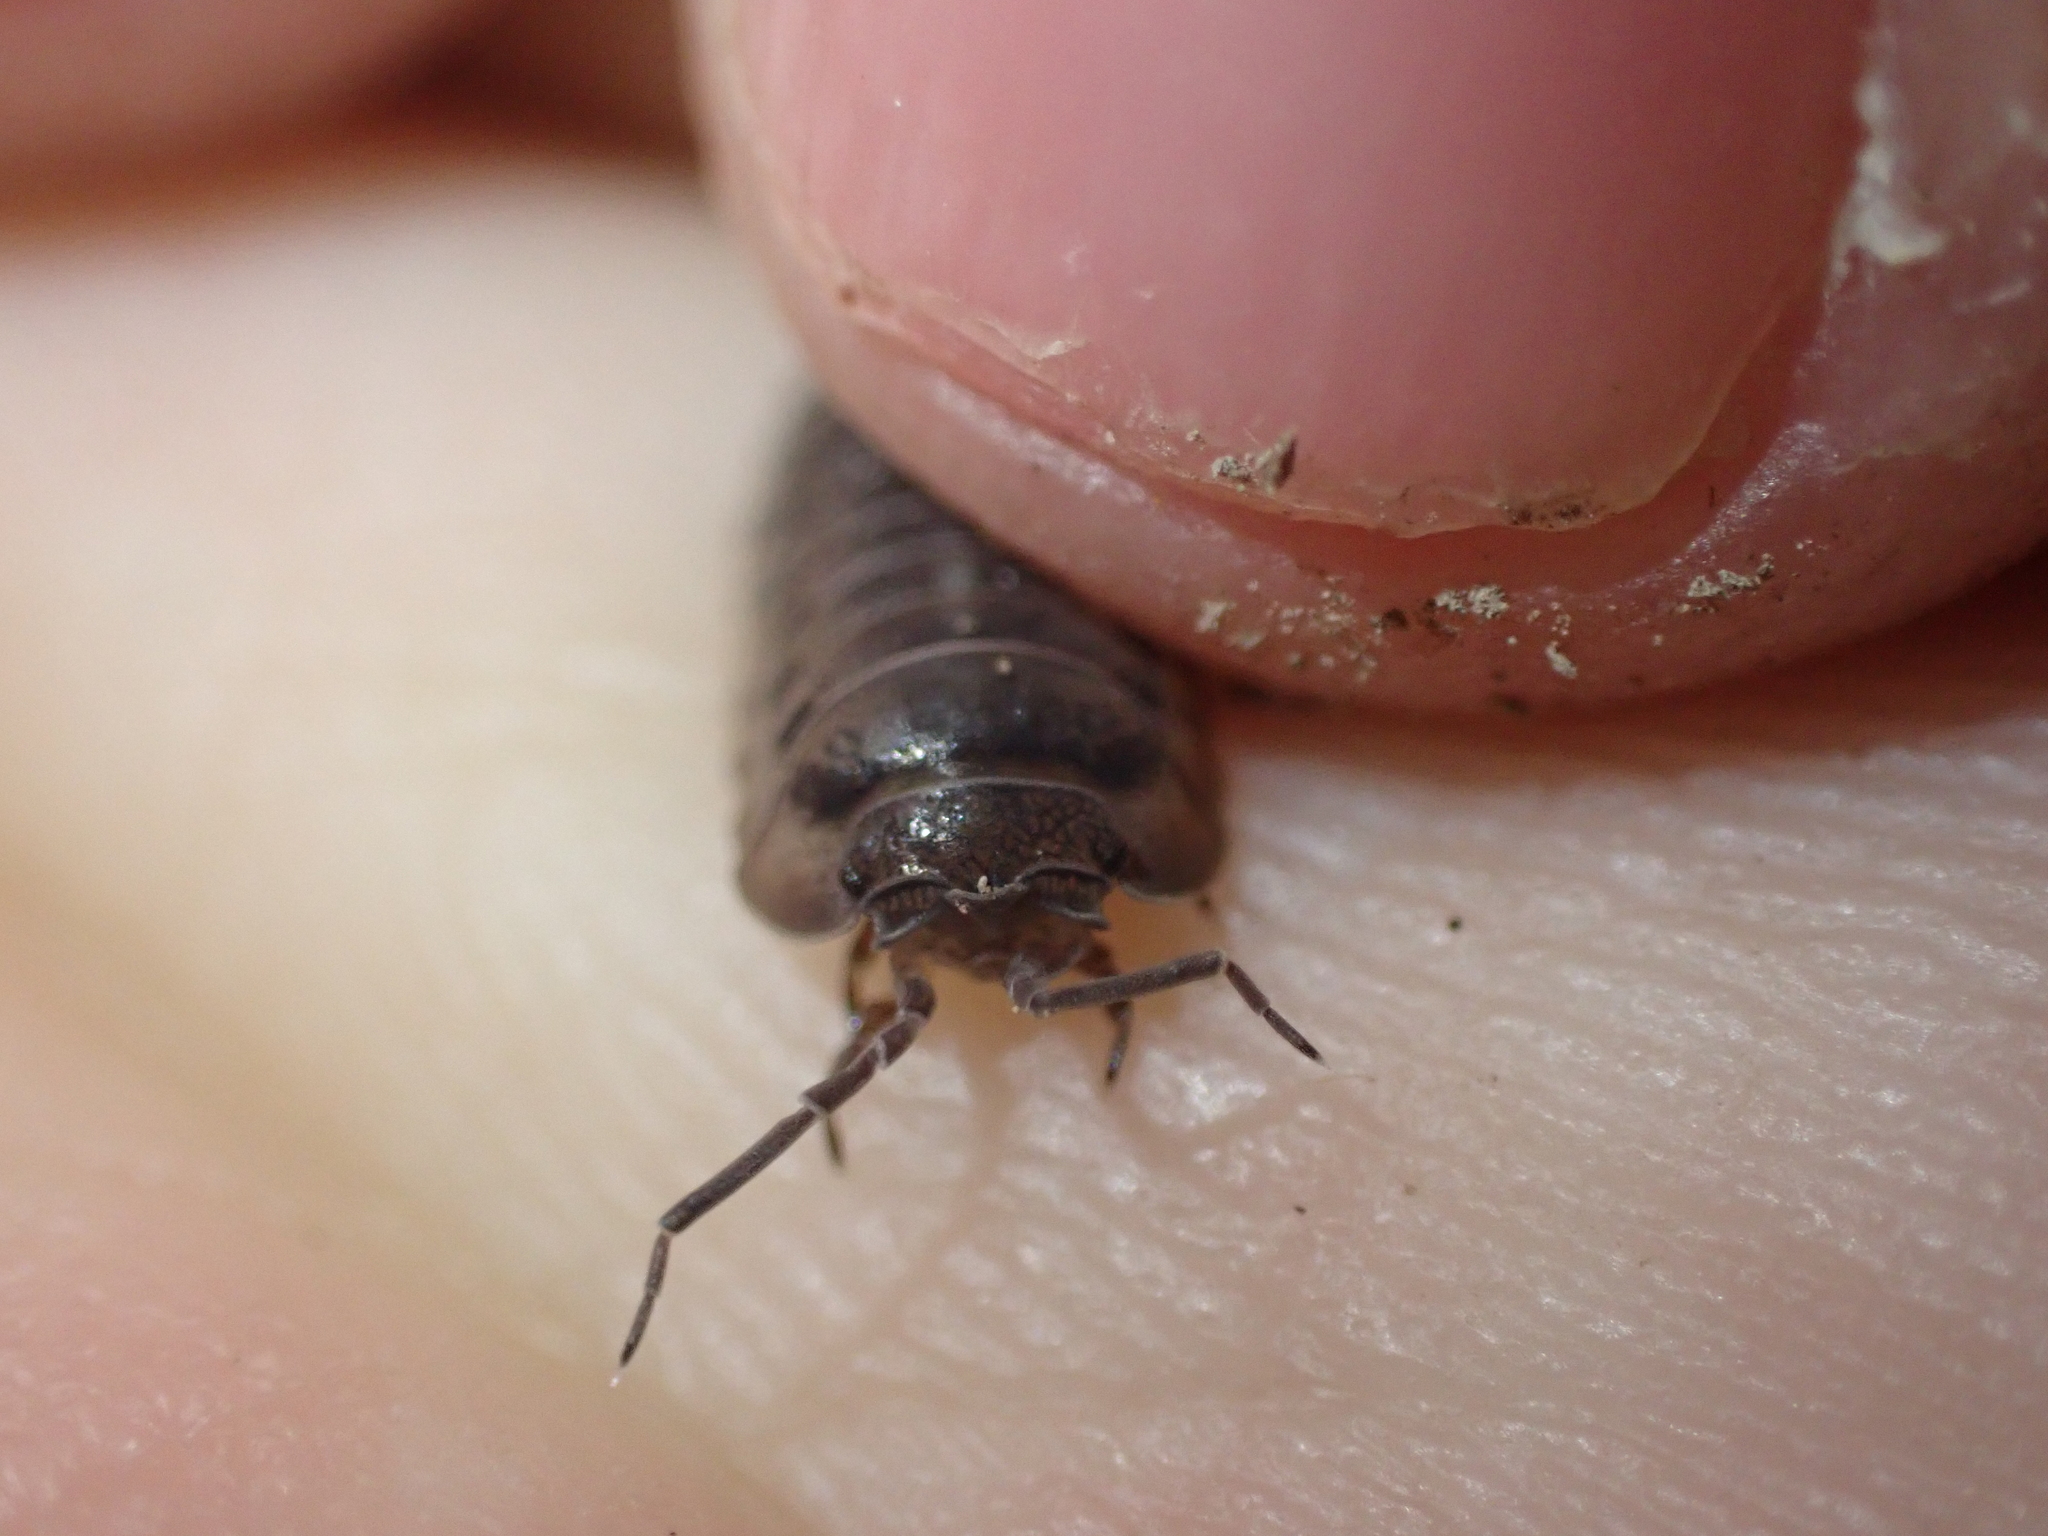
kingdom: Animalia
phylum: Arthropoda
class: Malacostraca
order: Isopoda
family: Armadillidiidae
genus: Armadillidium
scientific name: Armadillidium nasatum
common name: Isopod
